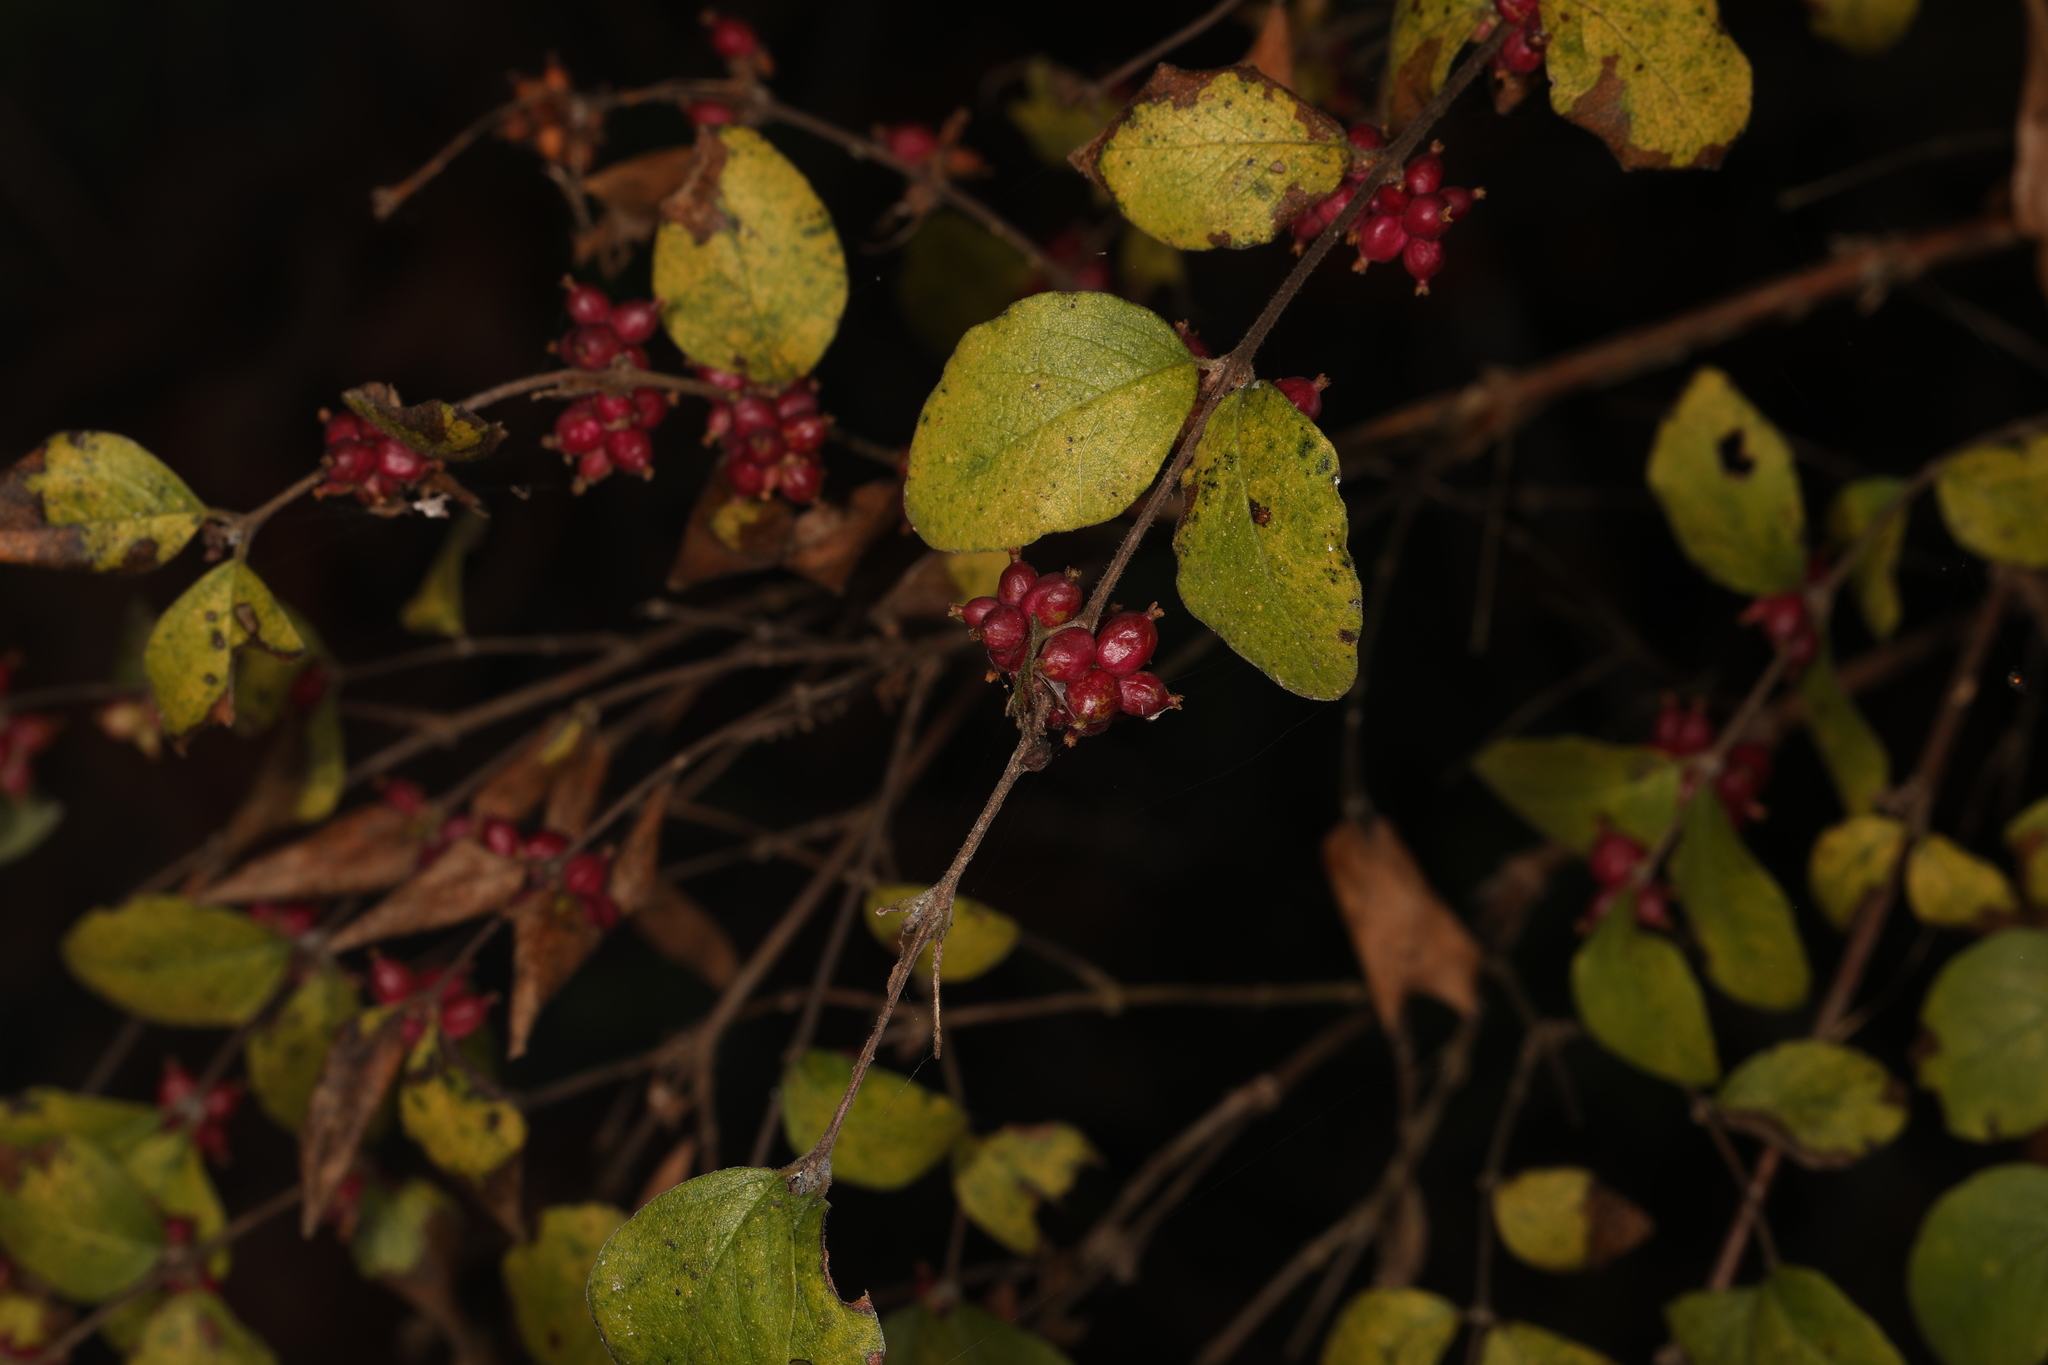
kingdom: Plantae
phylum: Tracheophyta
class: Magnoliopsida
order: Dipsacales
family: Caprifoliaceae
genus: Symphoricarpos
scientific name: Symphoricarpos orbiculatus
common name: Coralberry
